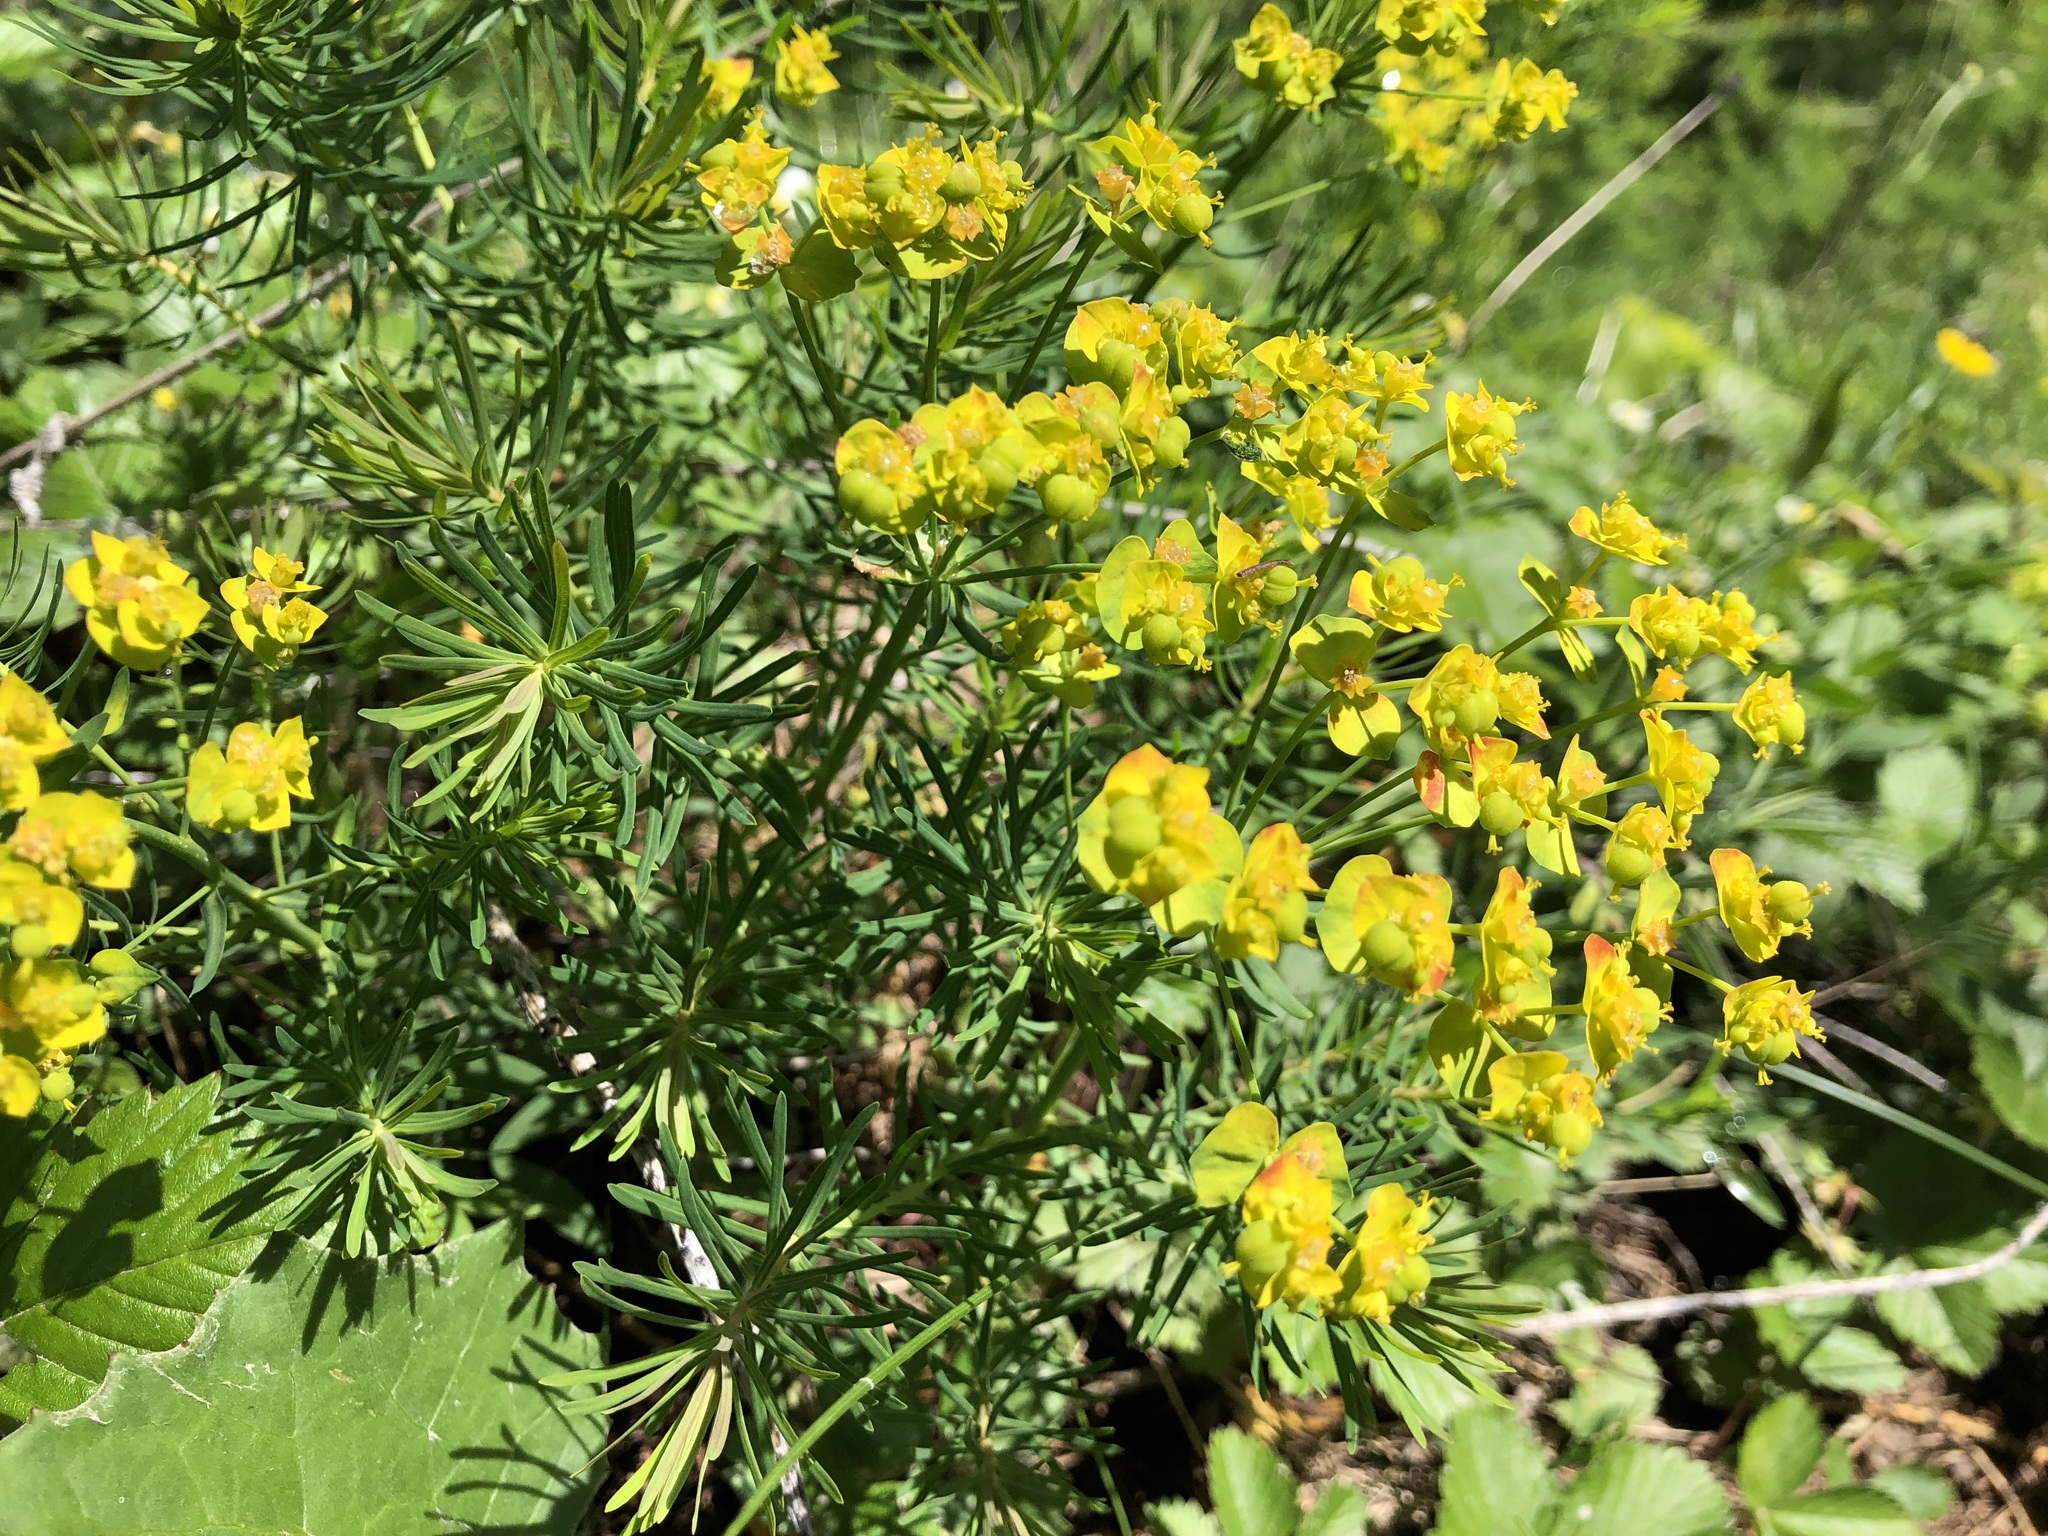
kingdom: Plantae
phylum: Tracheophyta
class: Magnoliopsida
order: Malpighiales
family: Euphorbiaceae
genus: Euphorbia
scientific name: Euphorbia cyparissias
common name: Cypress spurge
